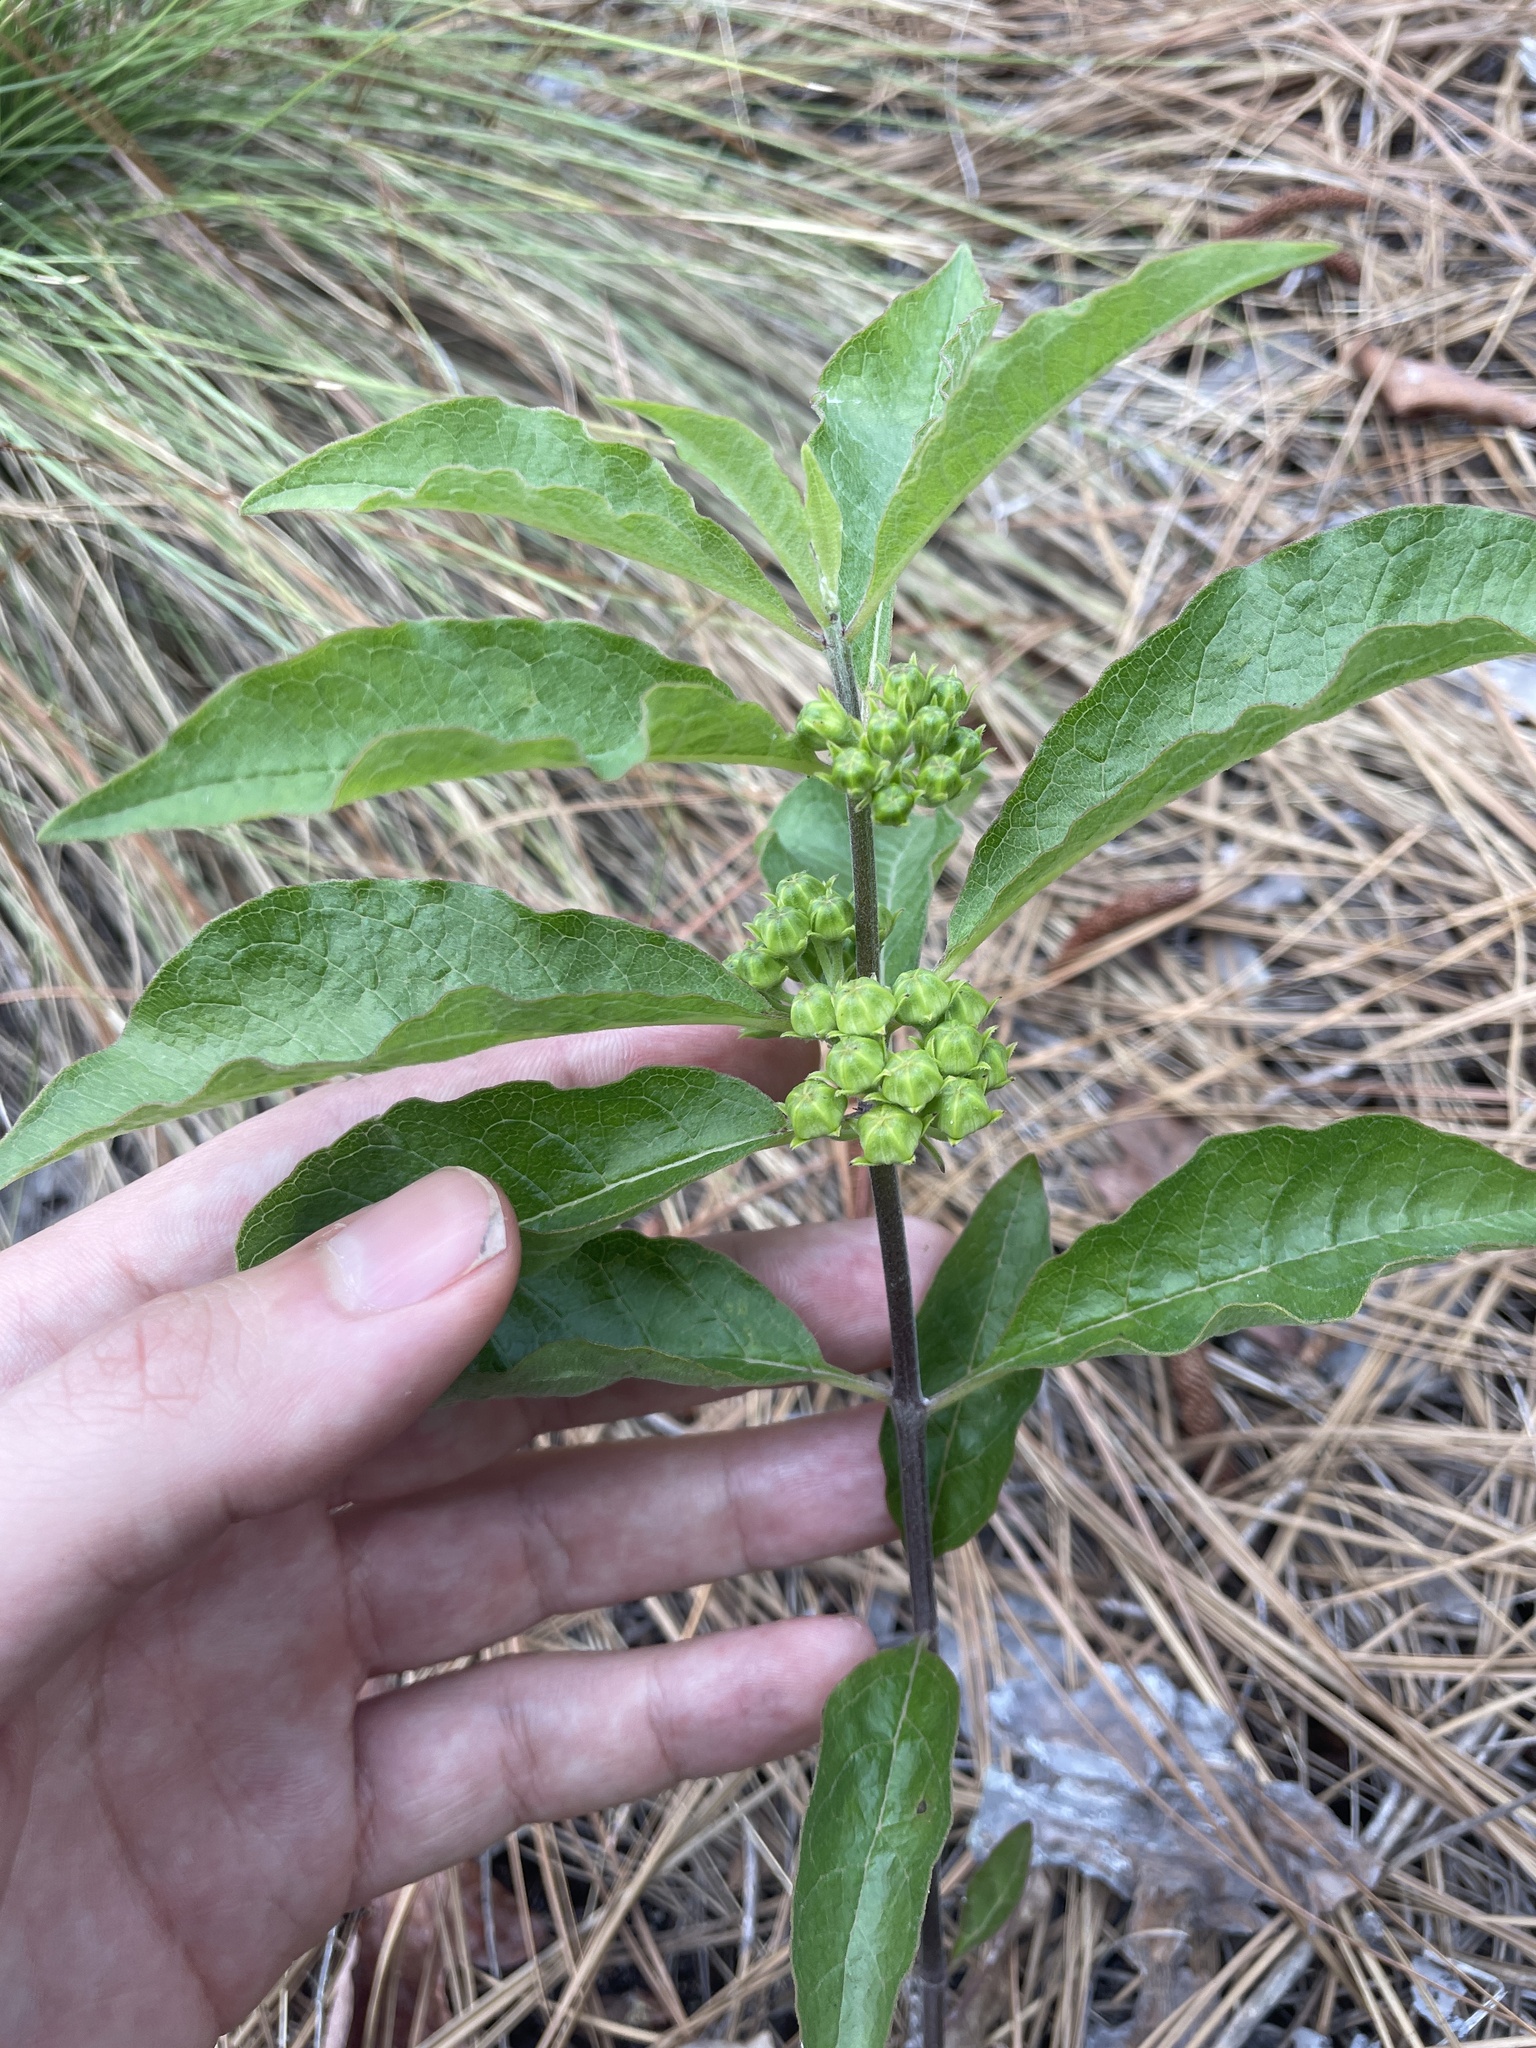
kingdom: Plantae
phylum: Tracheophyta
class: Magnoliopsida
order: Gentianales
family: Apocynaceae
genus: Asclepias
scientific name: Asclepias tomentosa
